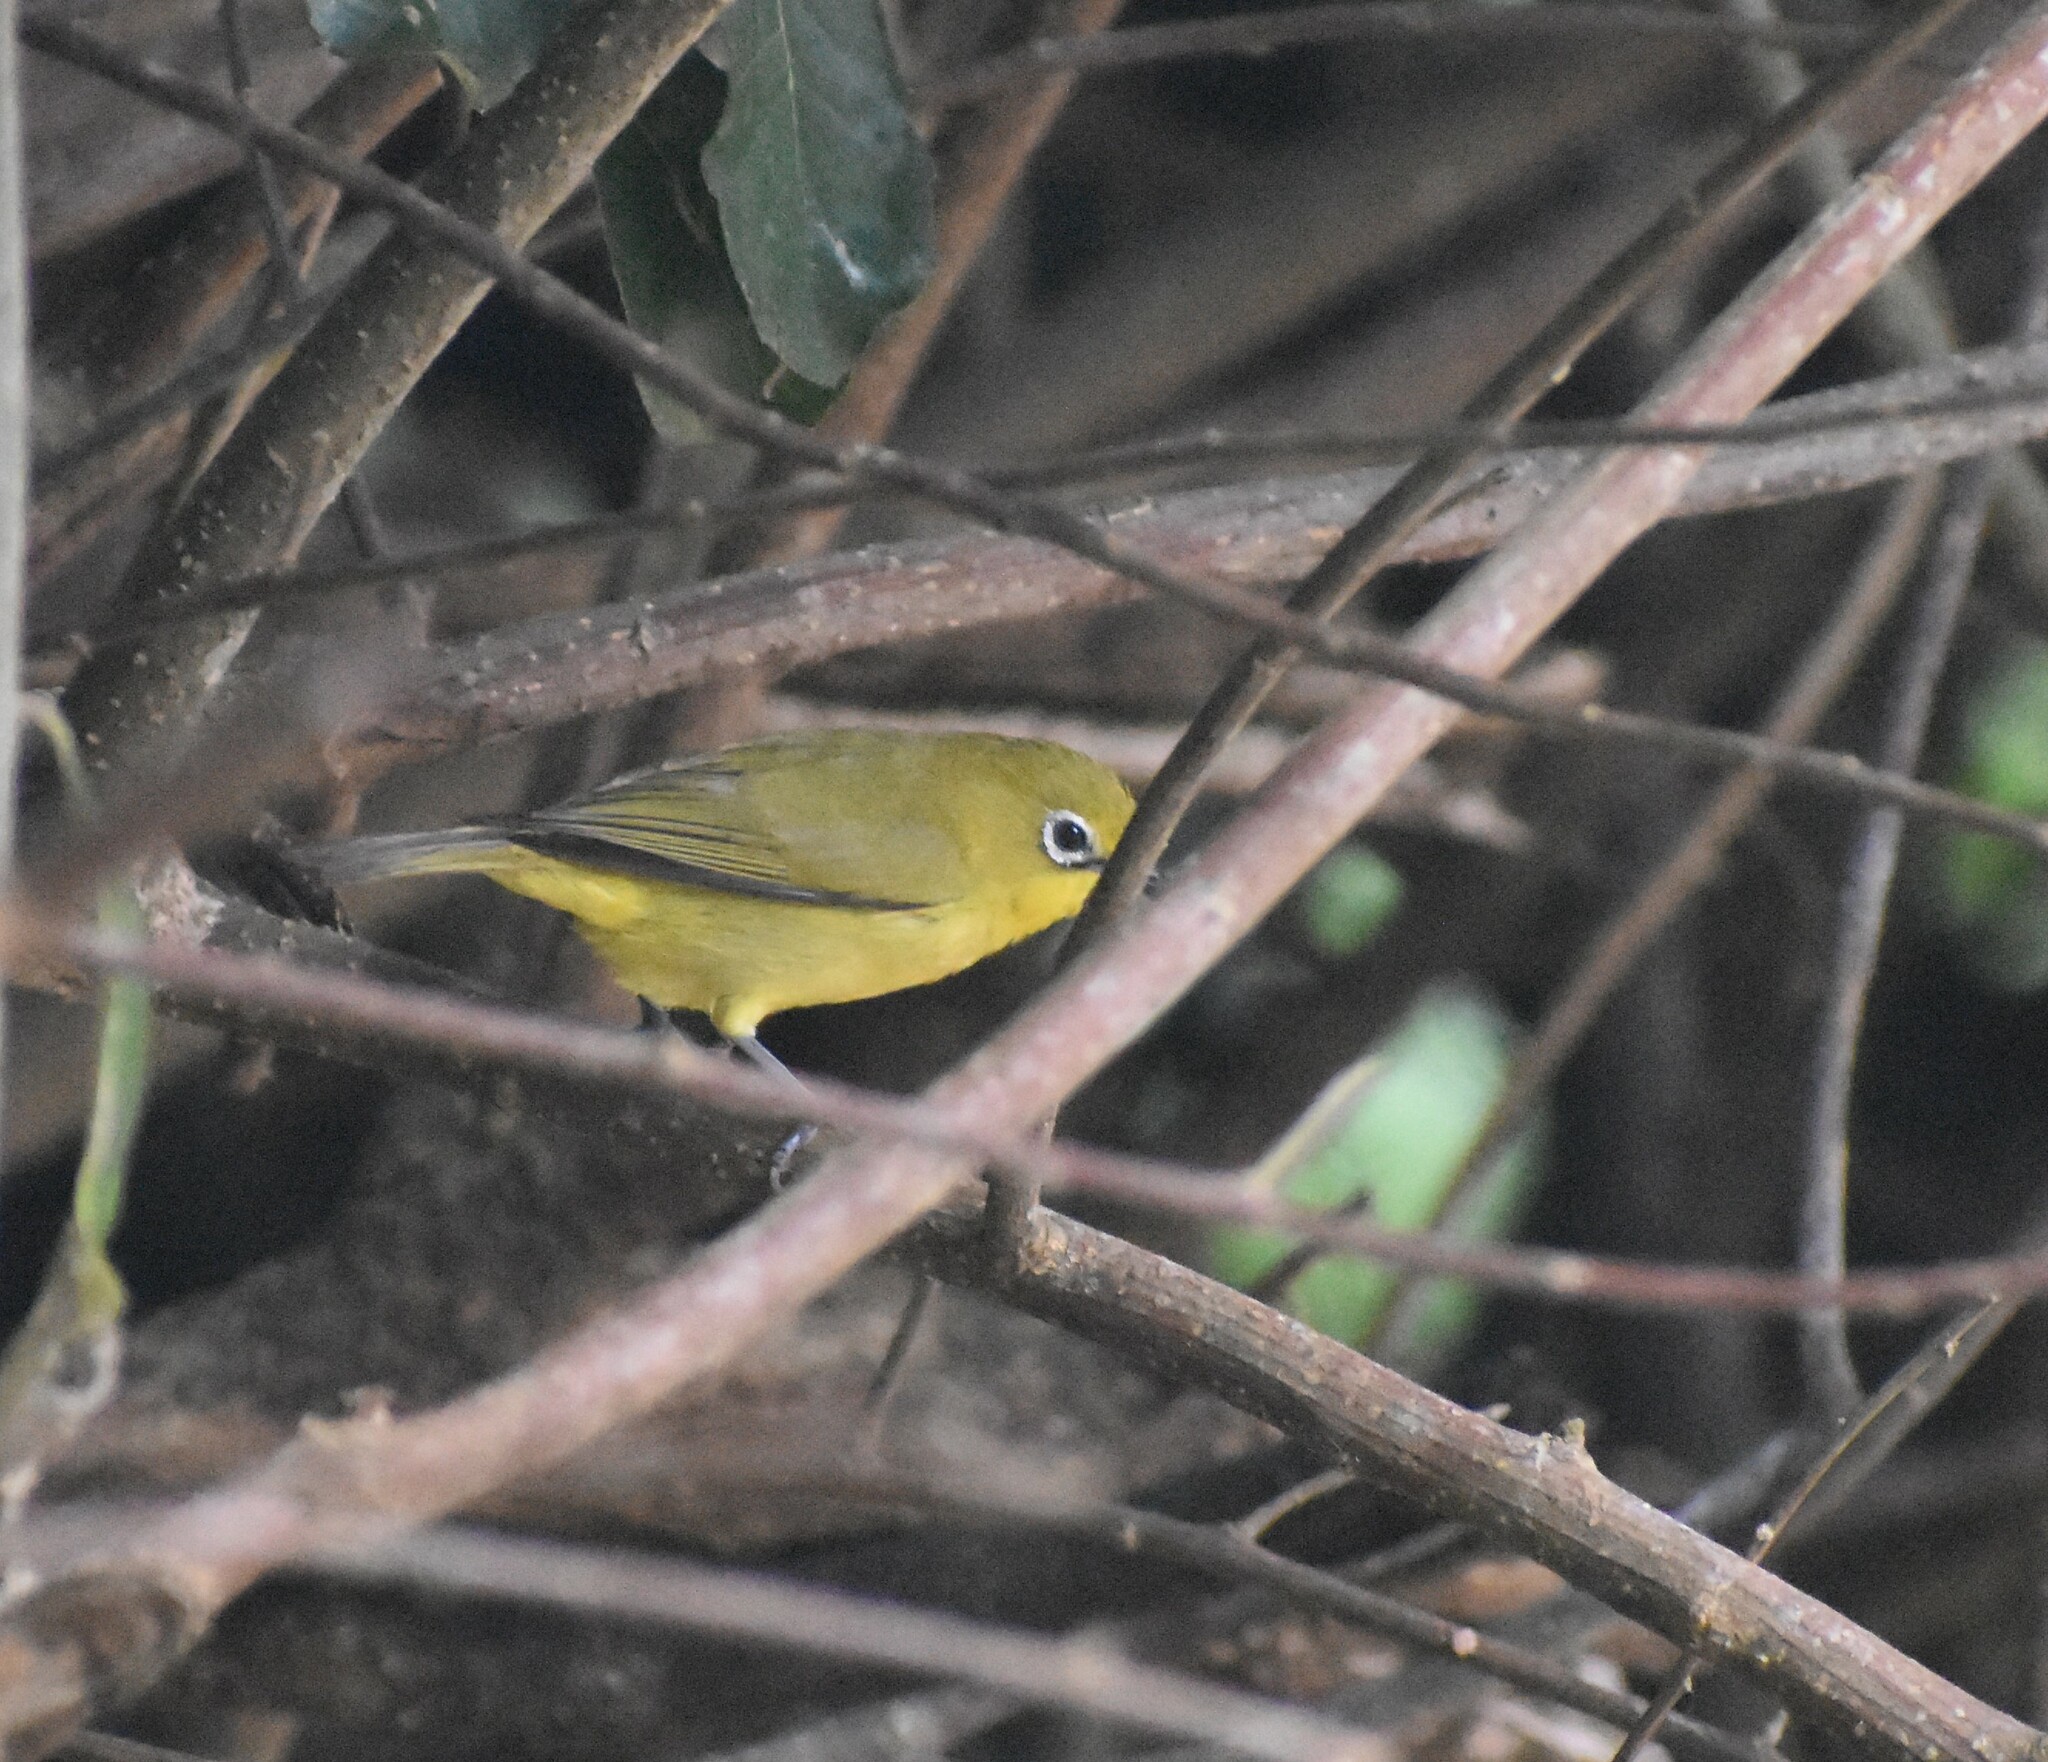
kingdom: Animalia
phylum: Chordata
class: Aves
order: Passeriformes
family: Zosteropidae
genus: Zosterops
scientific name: Zosterops virens
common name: Cape white-eye
